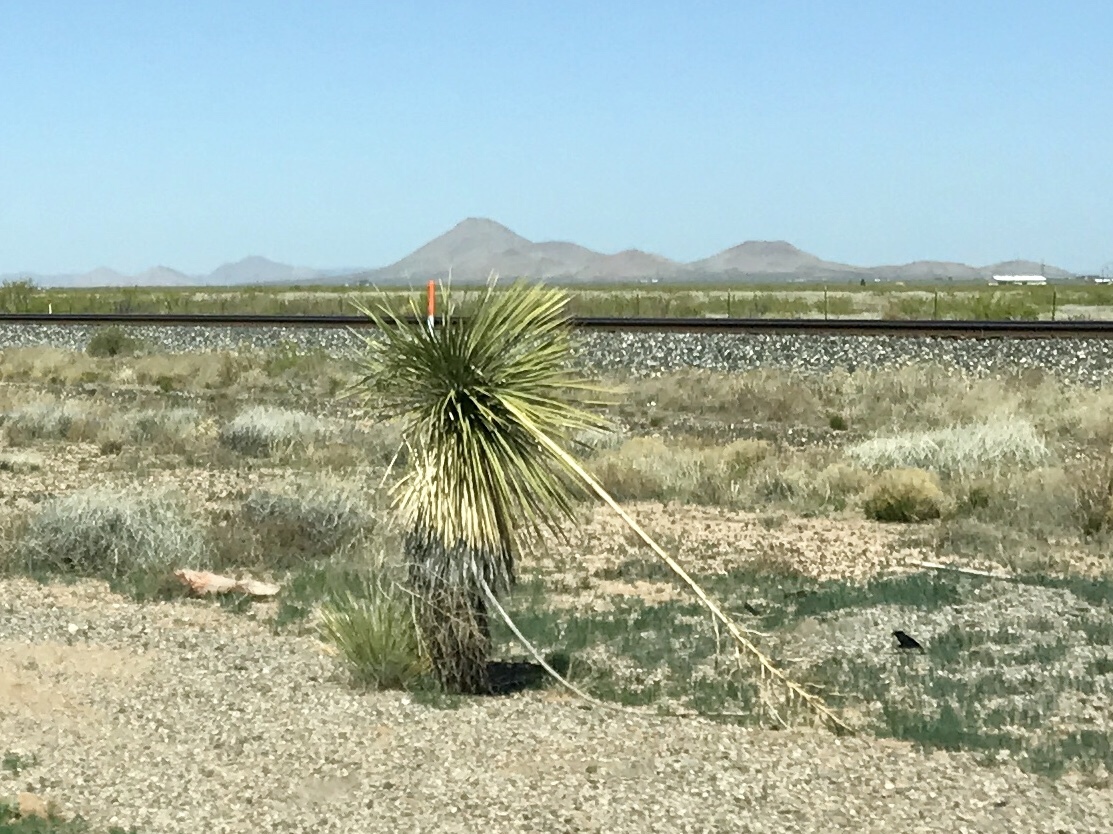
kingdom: Plantae
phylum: Tracheophyta
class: Liliopsida
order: Asparagales
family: Asparagaceae
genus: Yucca
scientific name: Yucca elata
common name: Palmella
